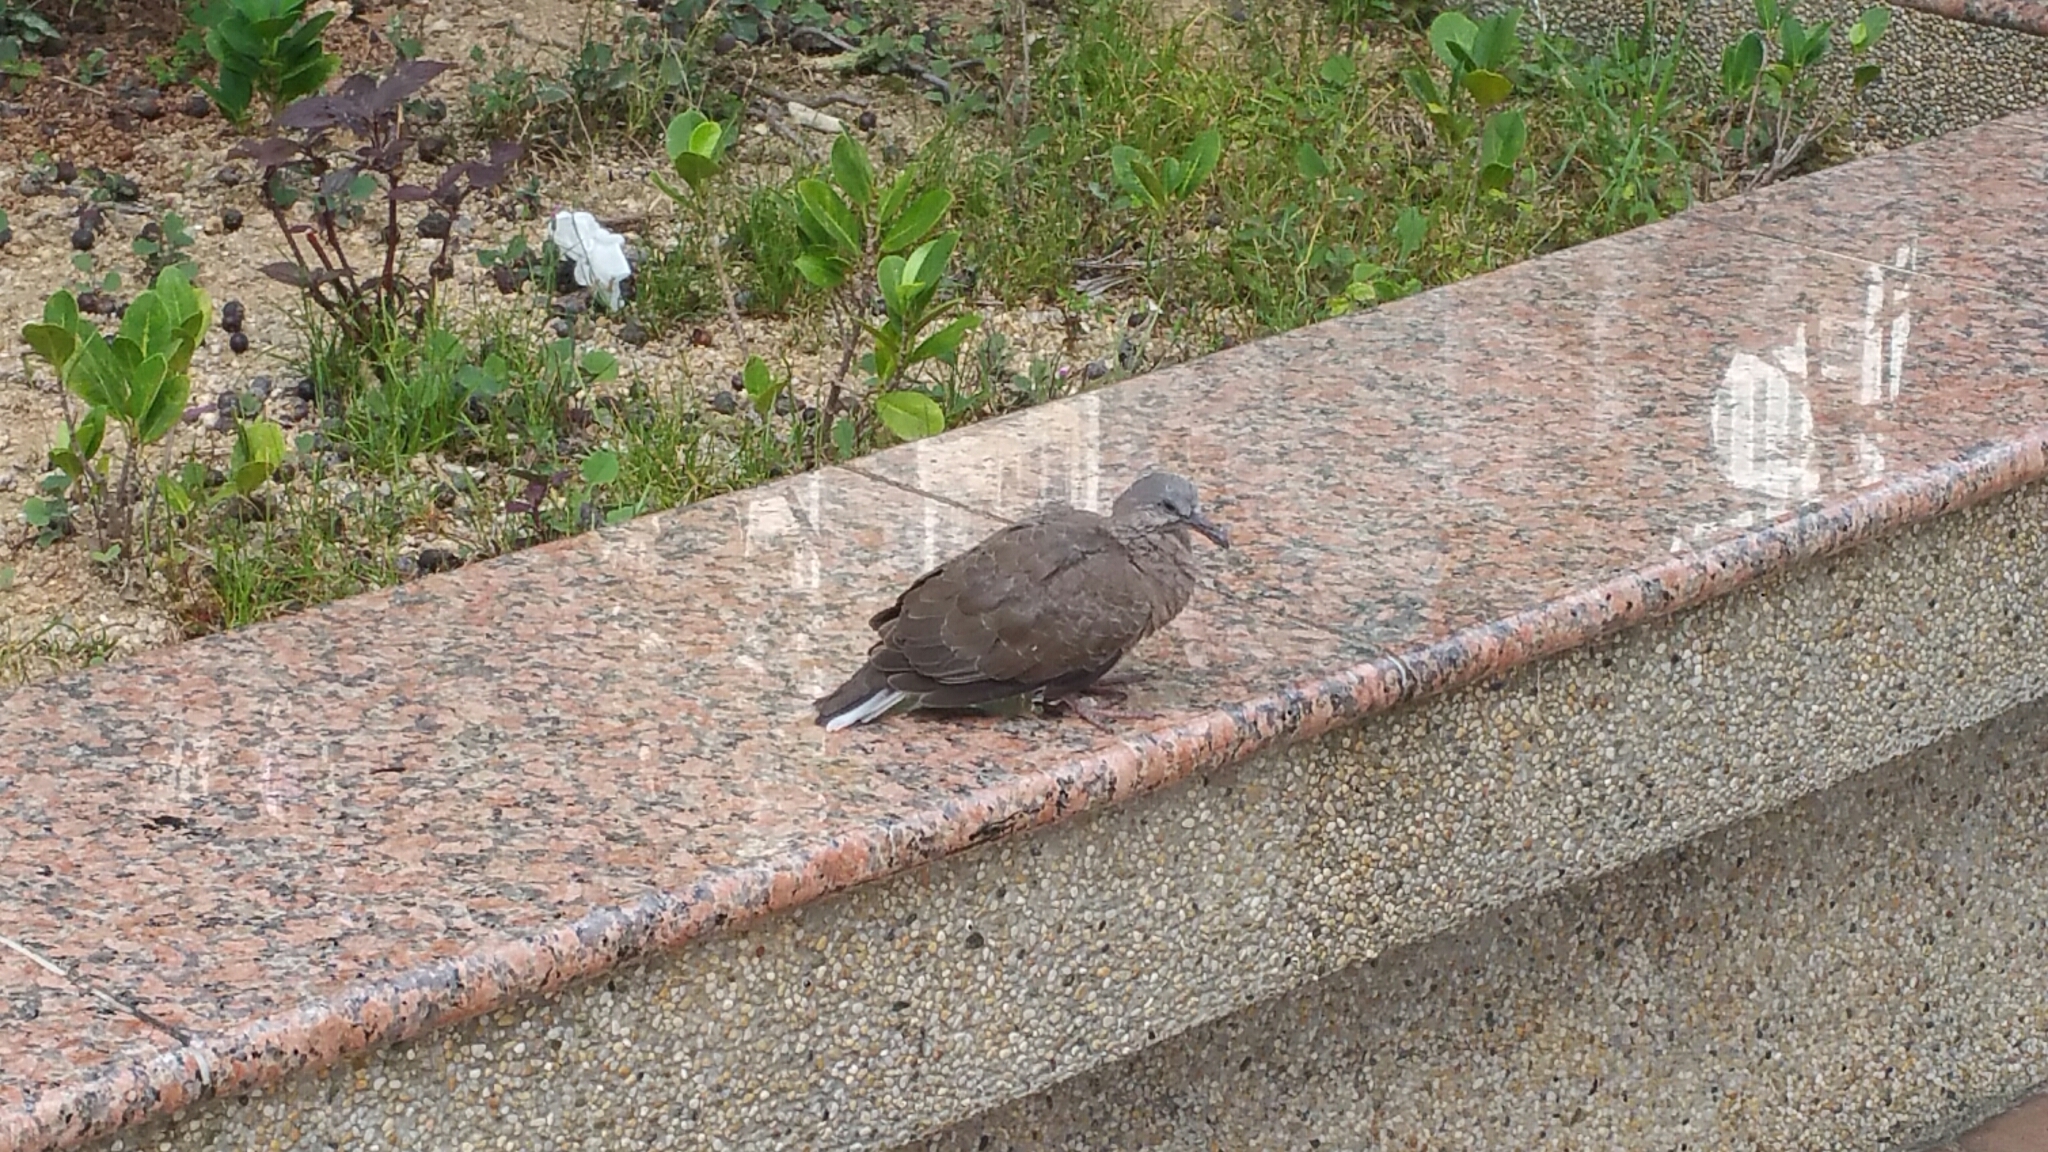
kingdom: Animalia
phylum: Chordata
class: Aves
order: Columbiformes
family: Columbidae
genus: Spilopelia
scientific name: Spilopelia chinensis
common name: Spotted dove
